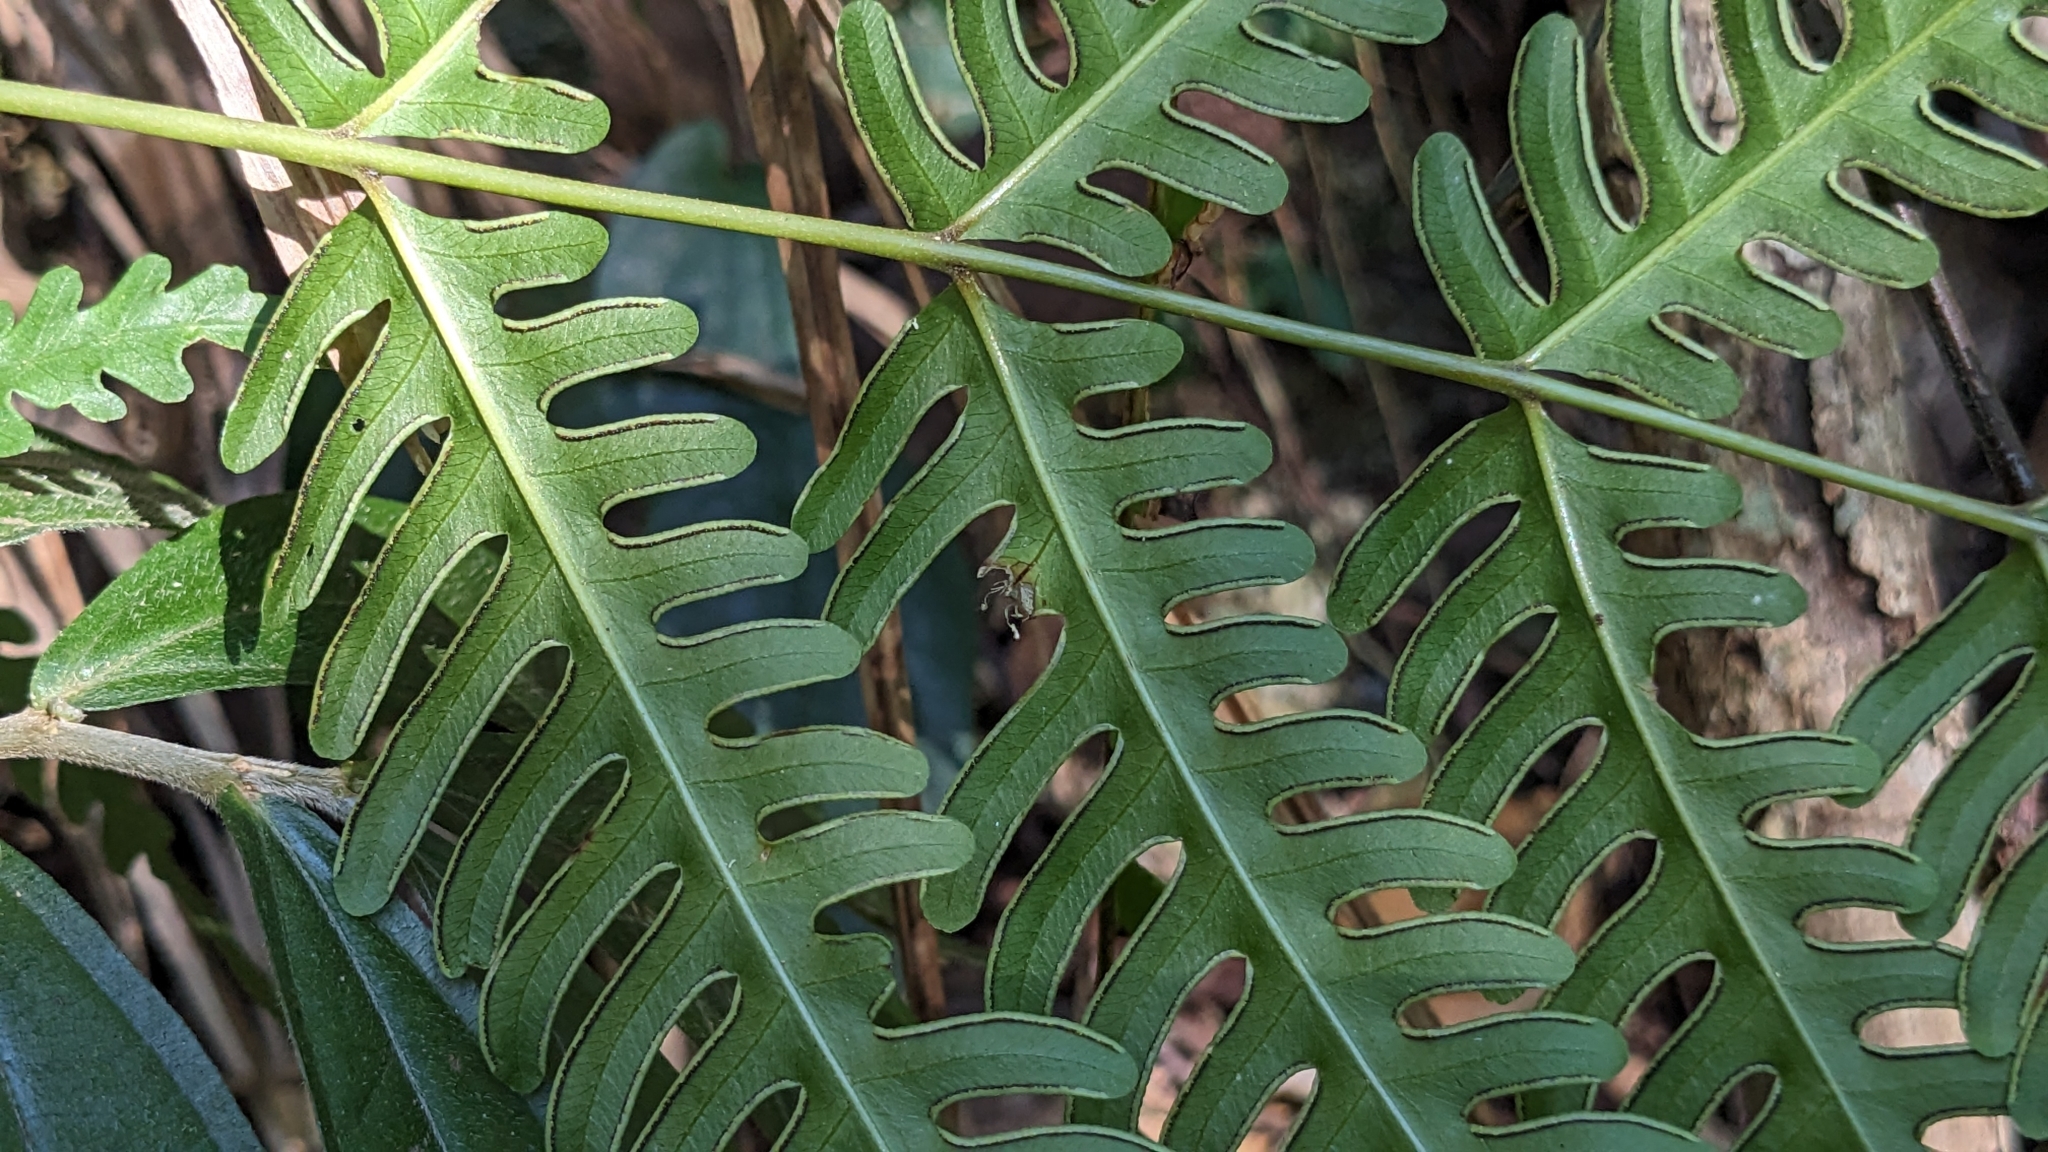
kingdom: Plantae
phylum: Tracheophyta
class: Polypodiopsida
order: Polypodiales
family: Pteridaceae
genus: Pteris
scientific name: Pteris biaurita
